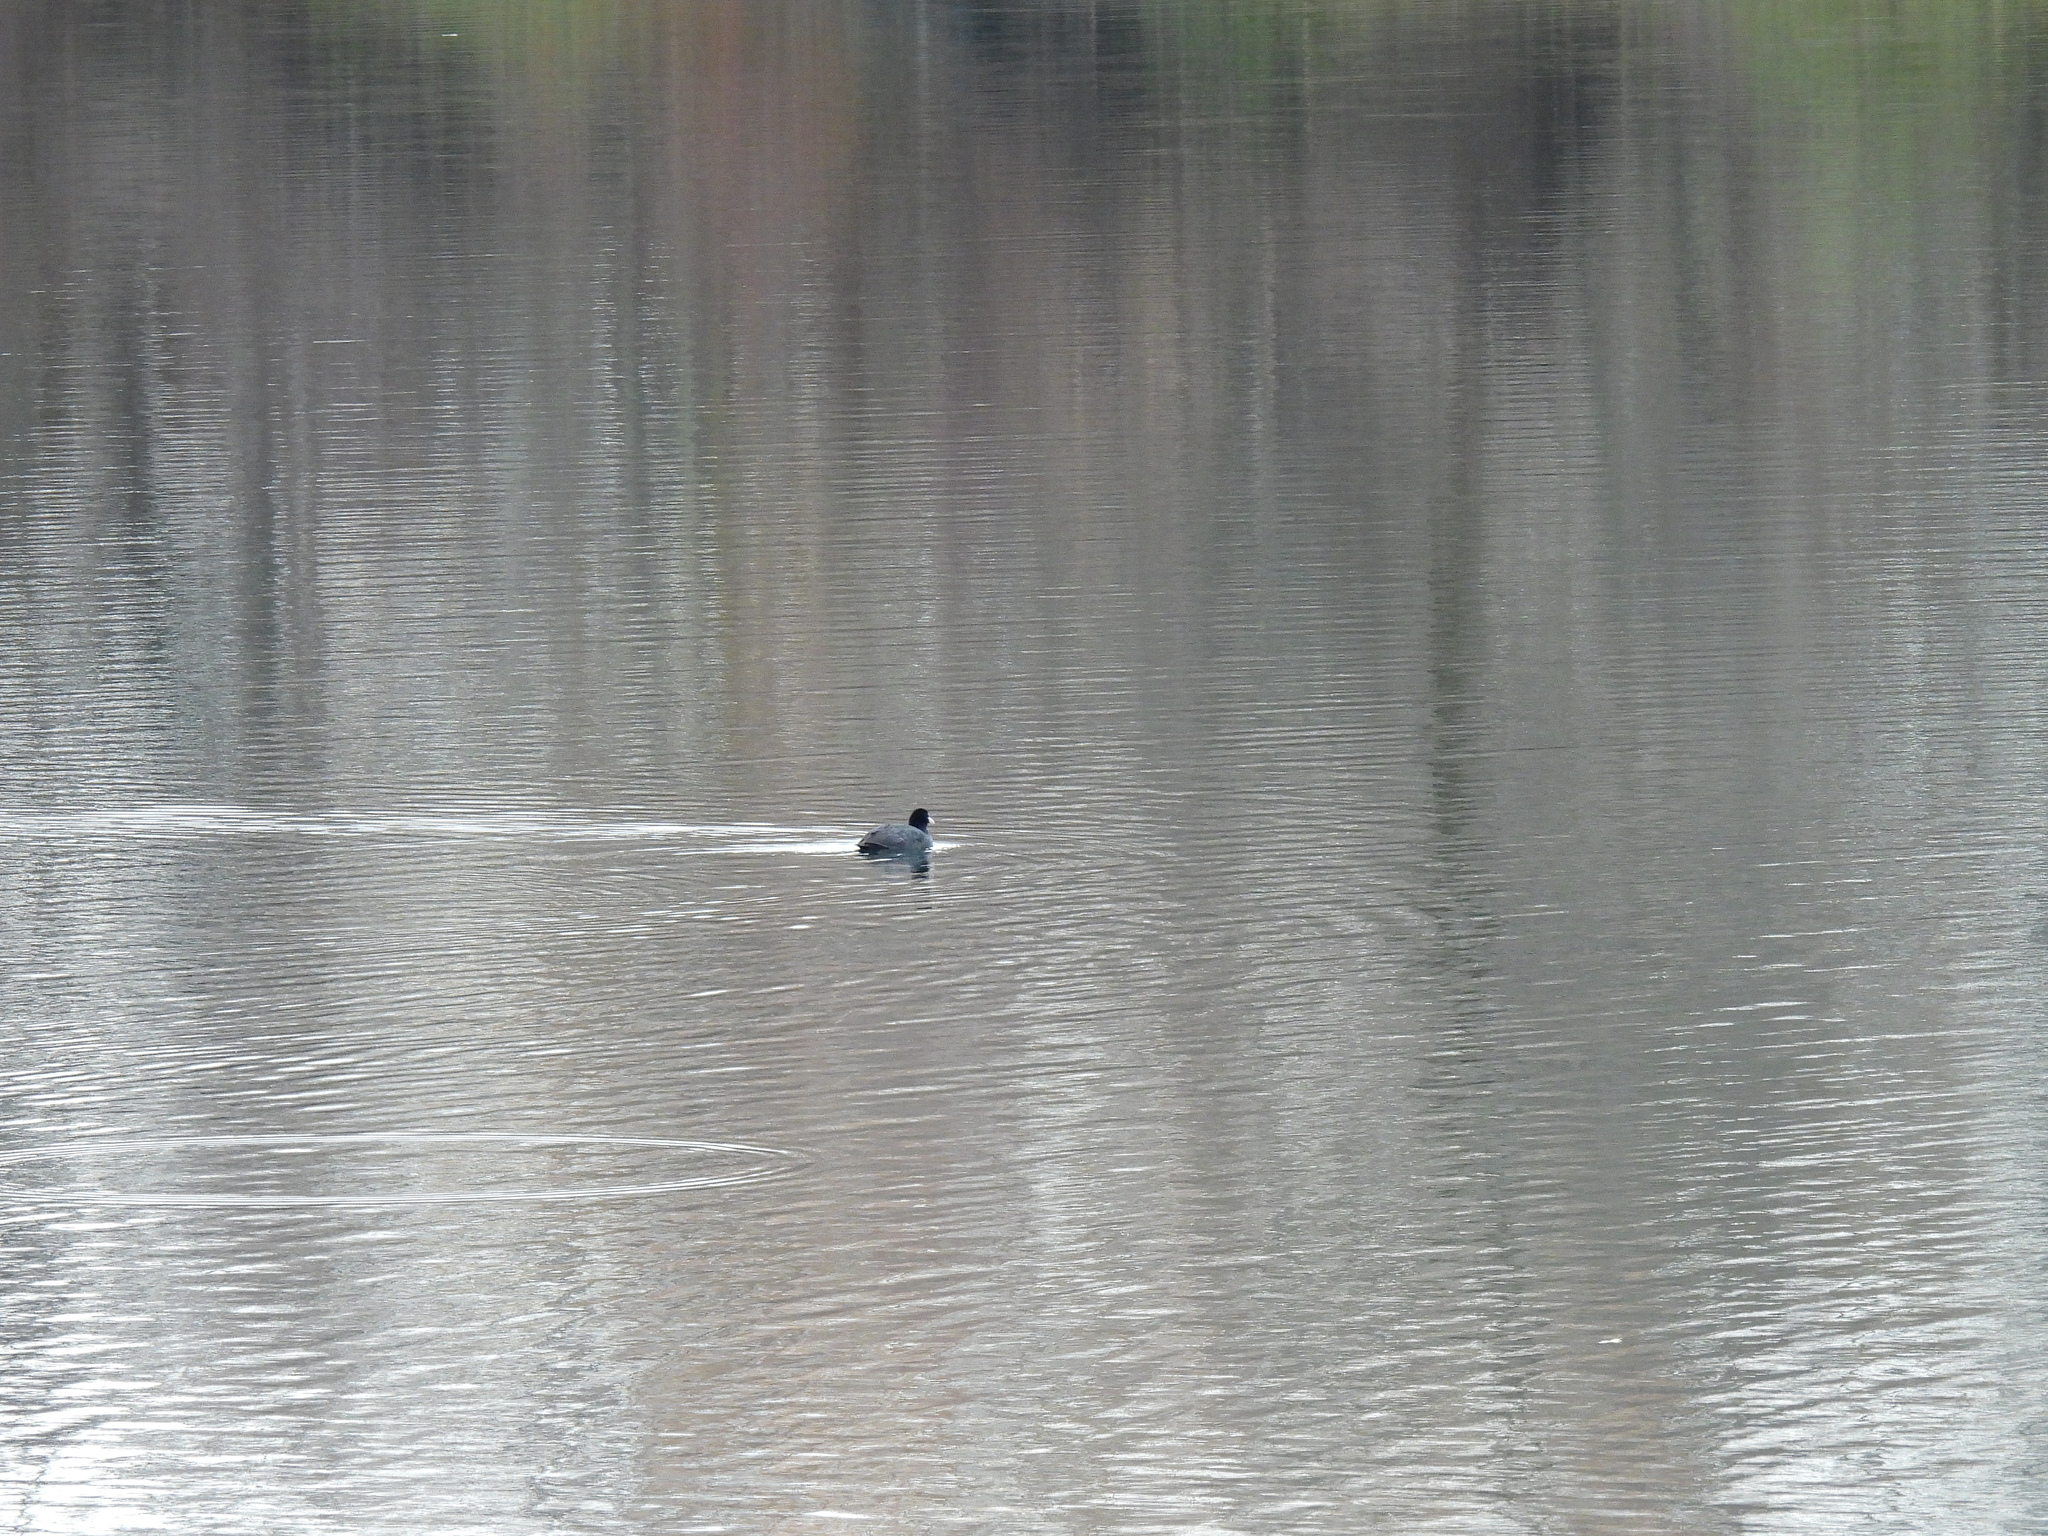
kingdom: Animalia
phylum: Chordata
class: Aves
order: Gruiformes
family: Rallidae
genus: Fulica
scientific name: Fulica atra
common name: Eurasian coot
